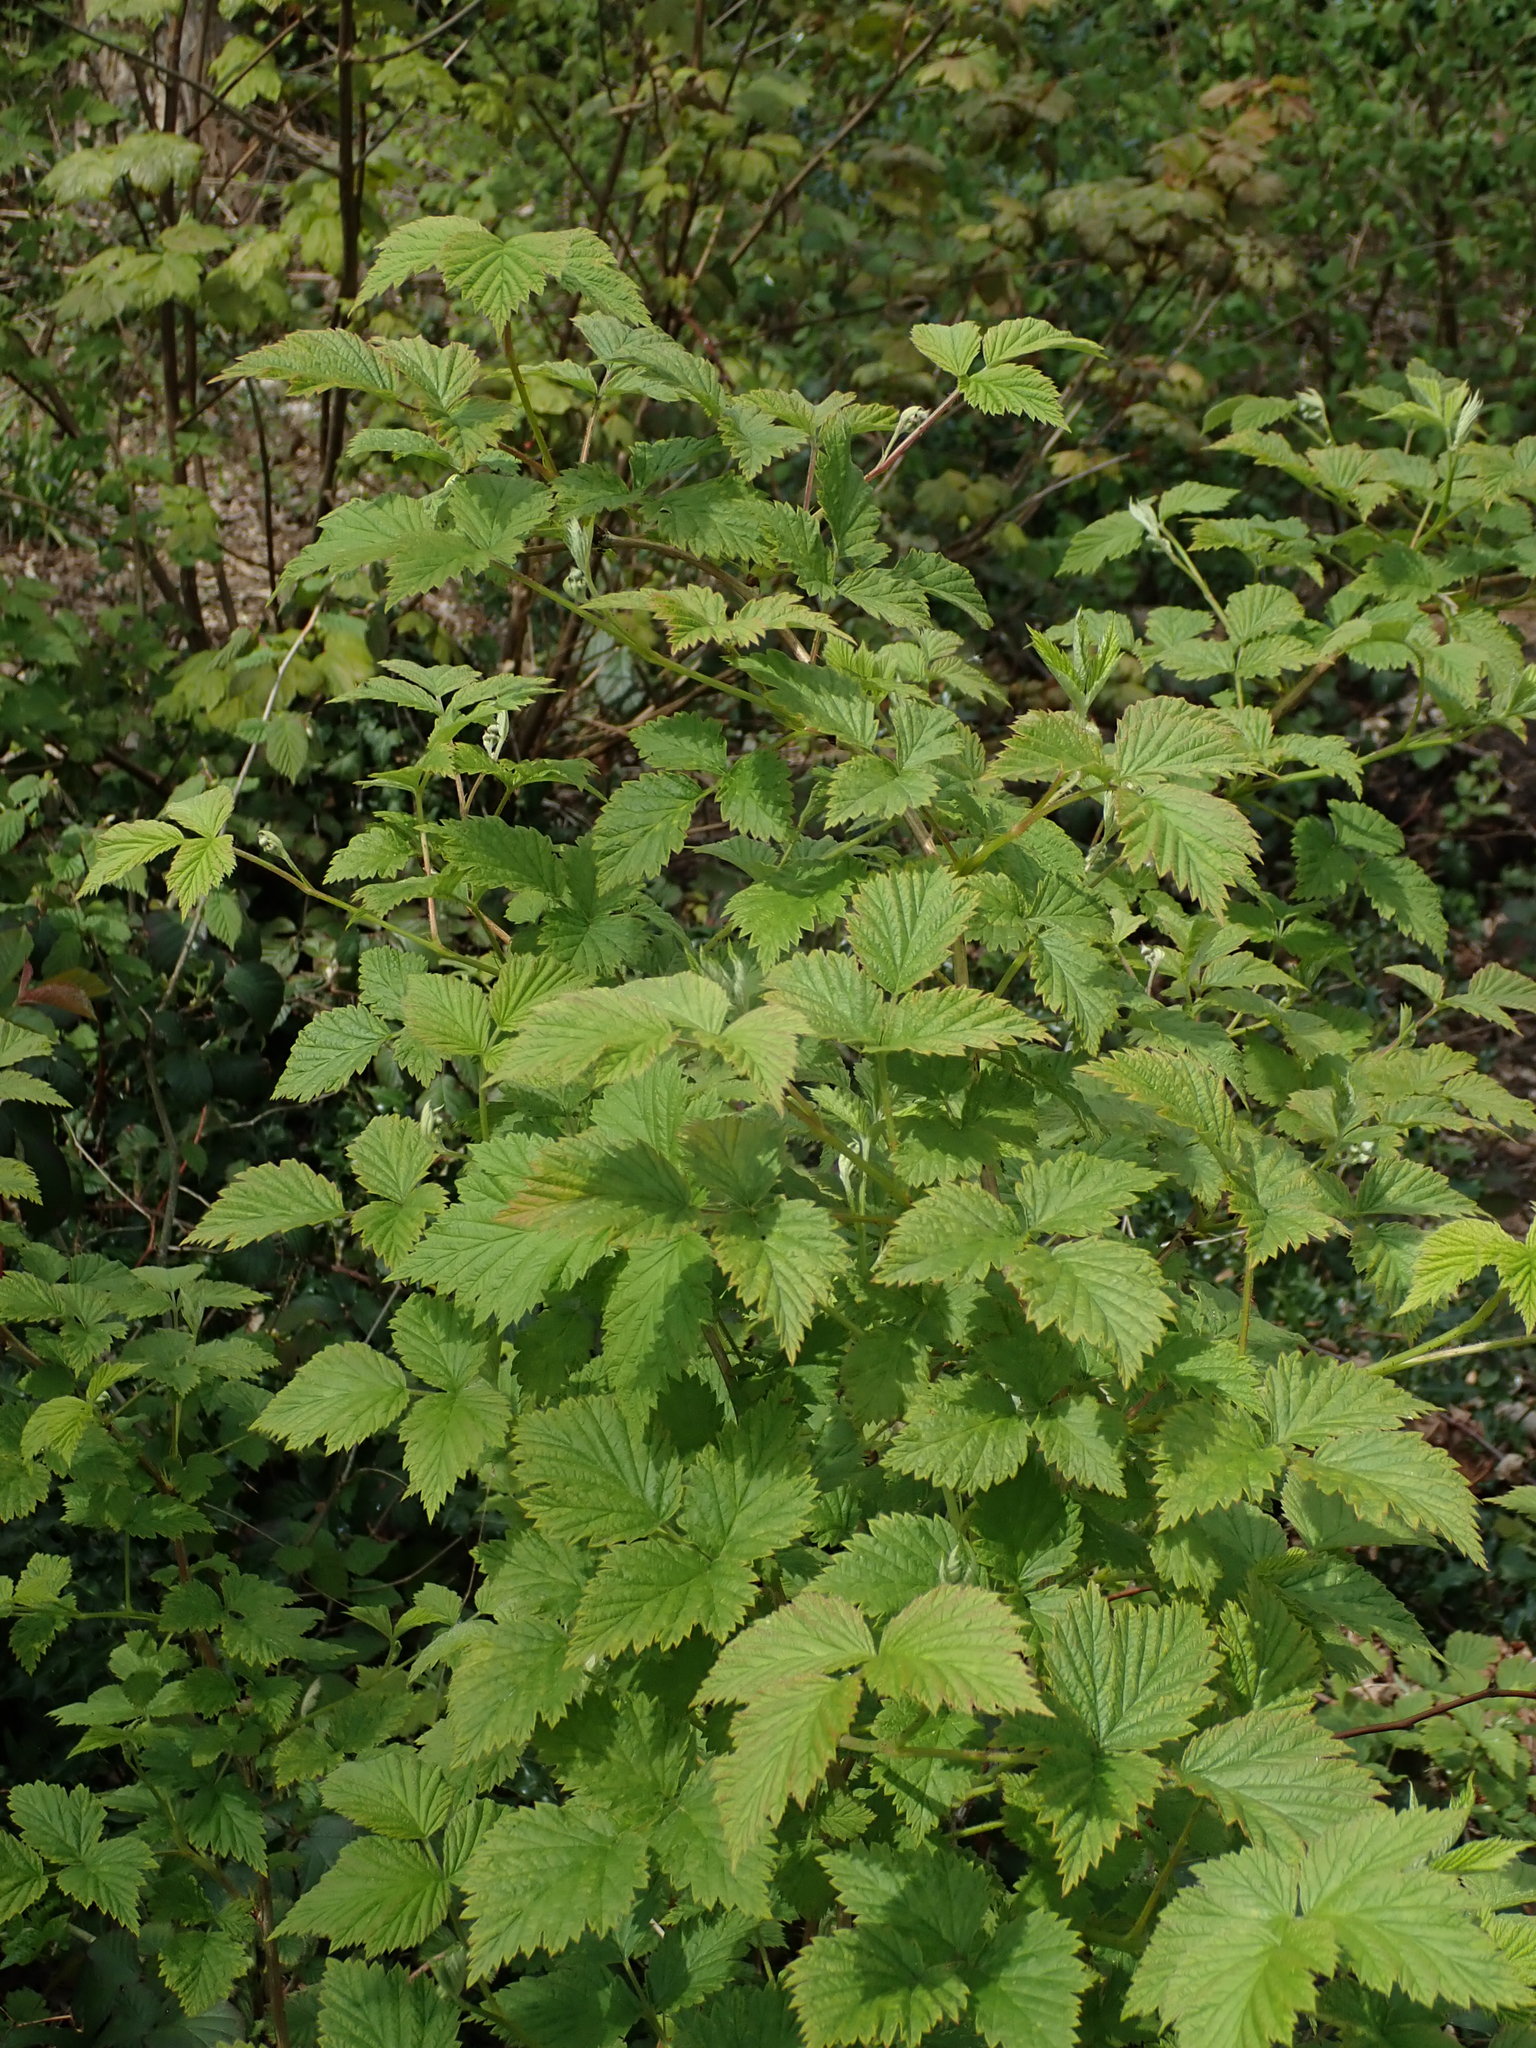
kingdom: Plantae
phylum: Tracheophyta
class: Magnoliopsida
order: Rosales
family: Rosaceae
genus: Rubus
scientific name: Rubus idaeus
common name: Raspberry
